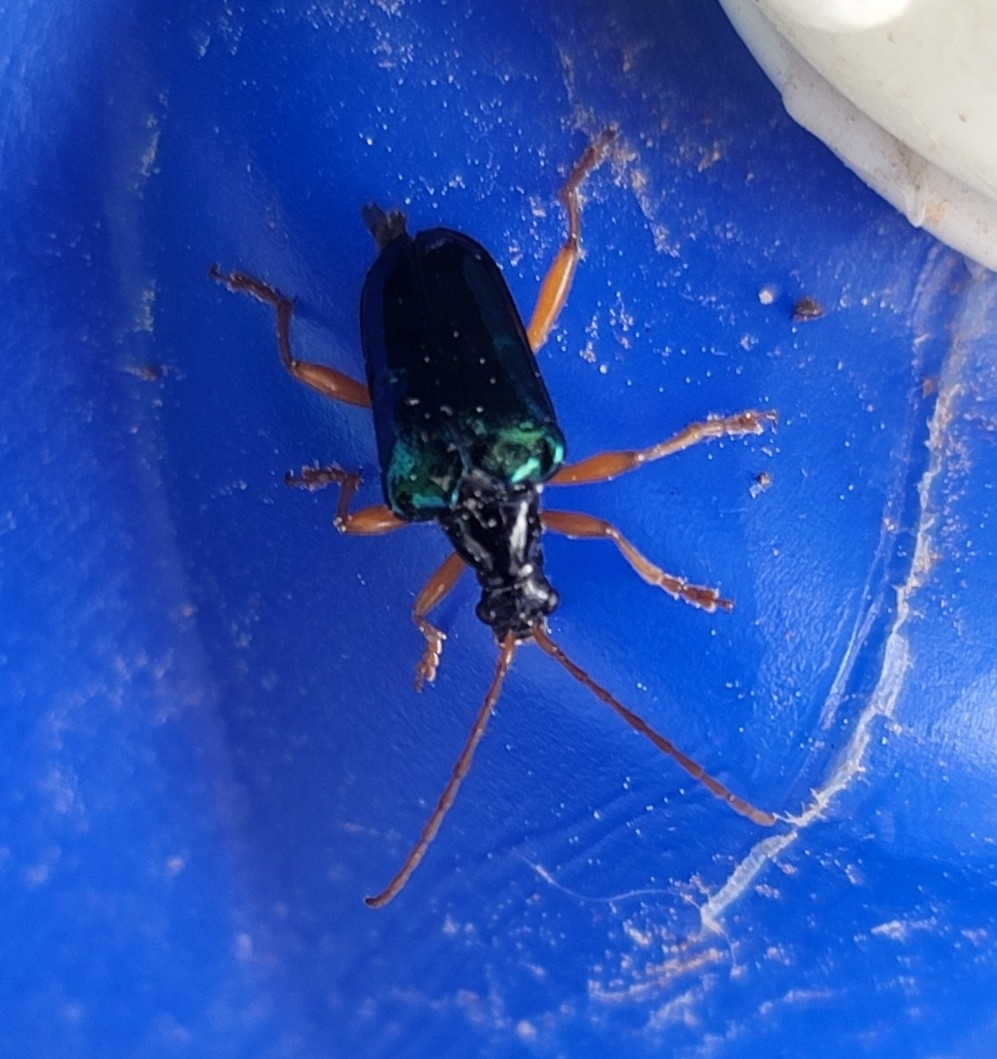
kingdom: Animalia
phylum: Arthropoda
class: Insecta
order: Coleoptera
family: Cerambycidae
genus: Gaurotes
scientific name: Gaurotes cyanipennis
